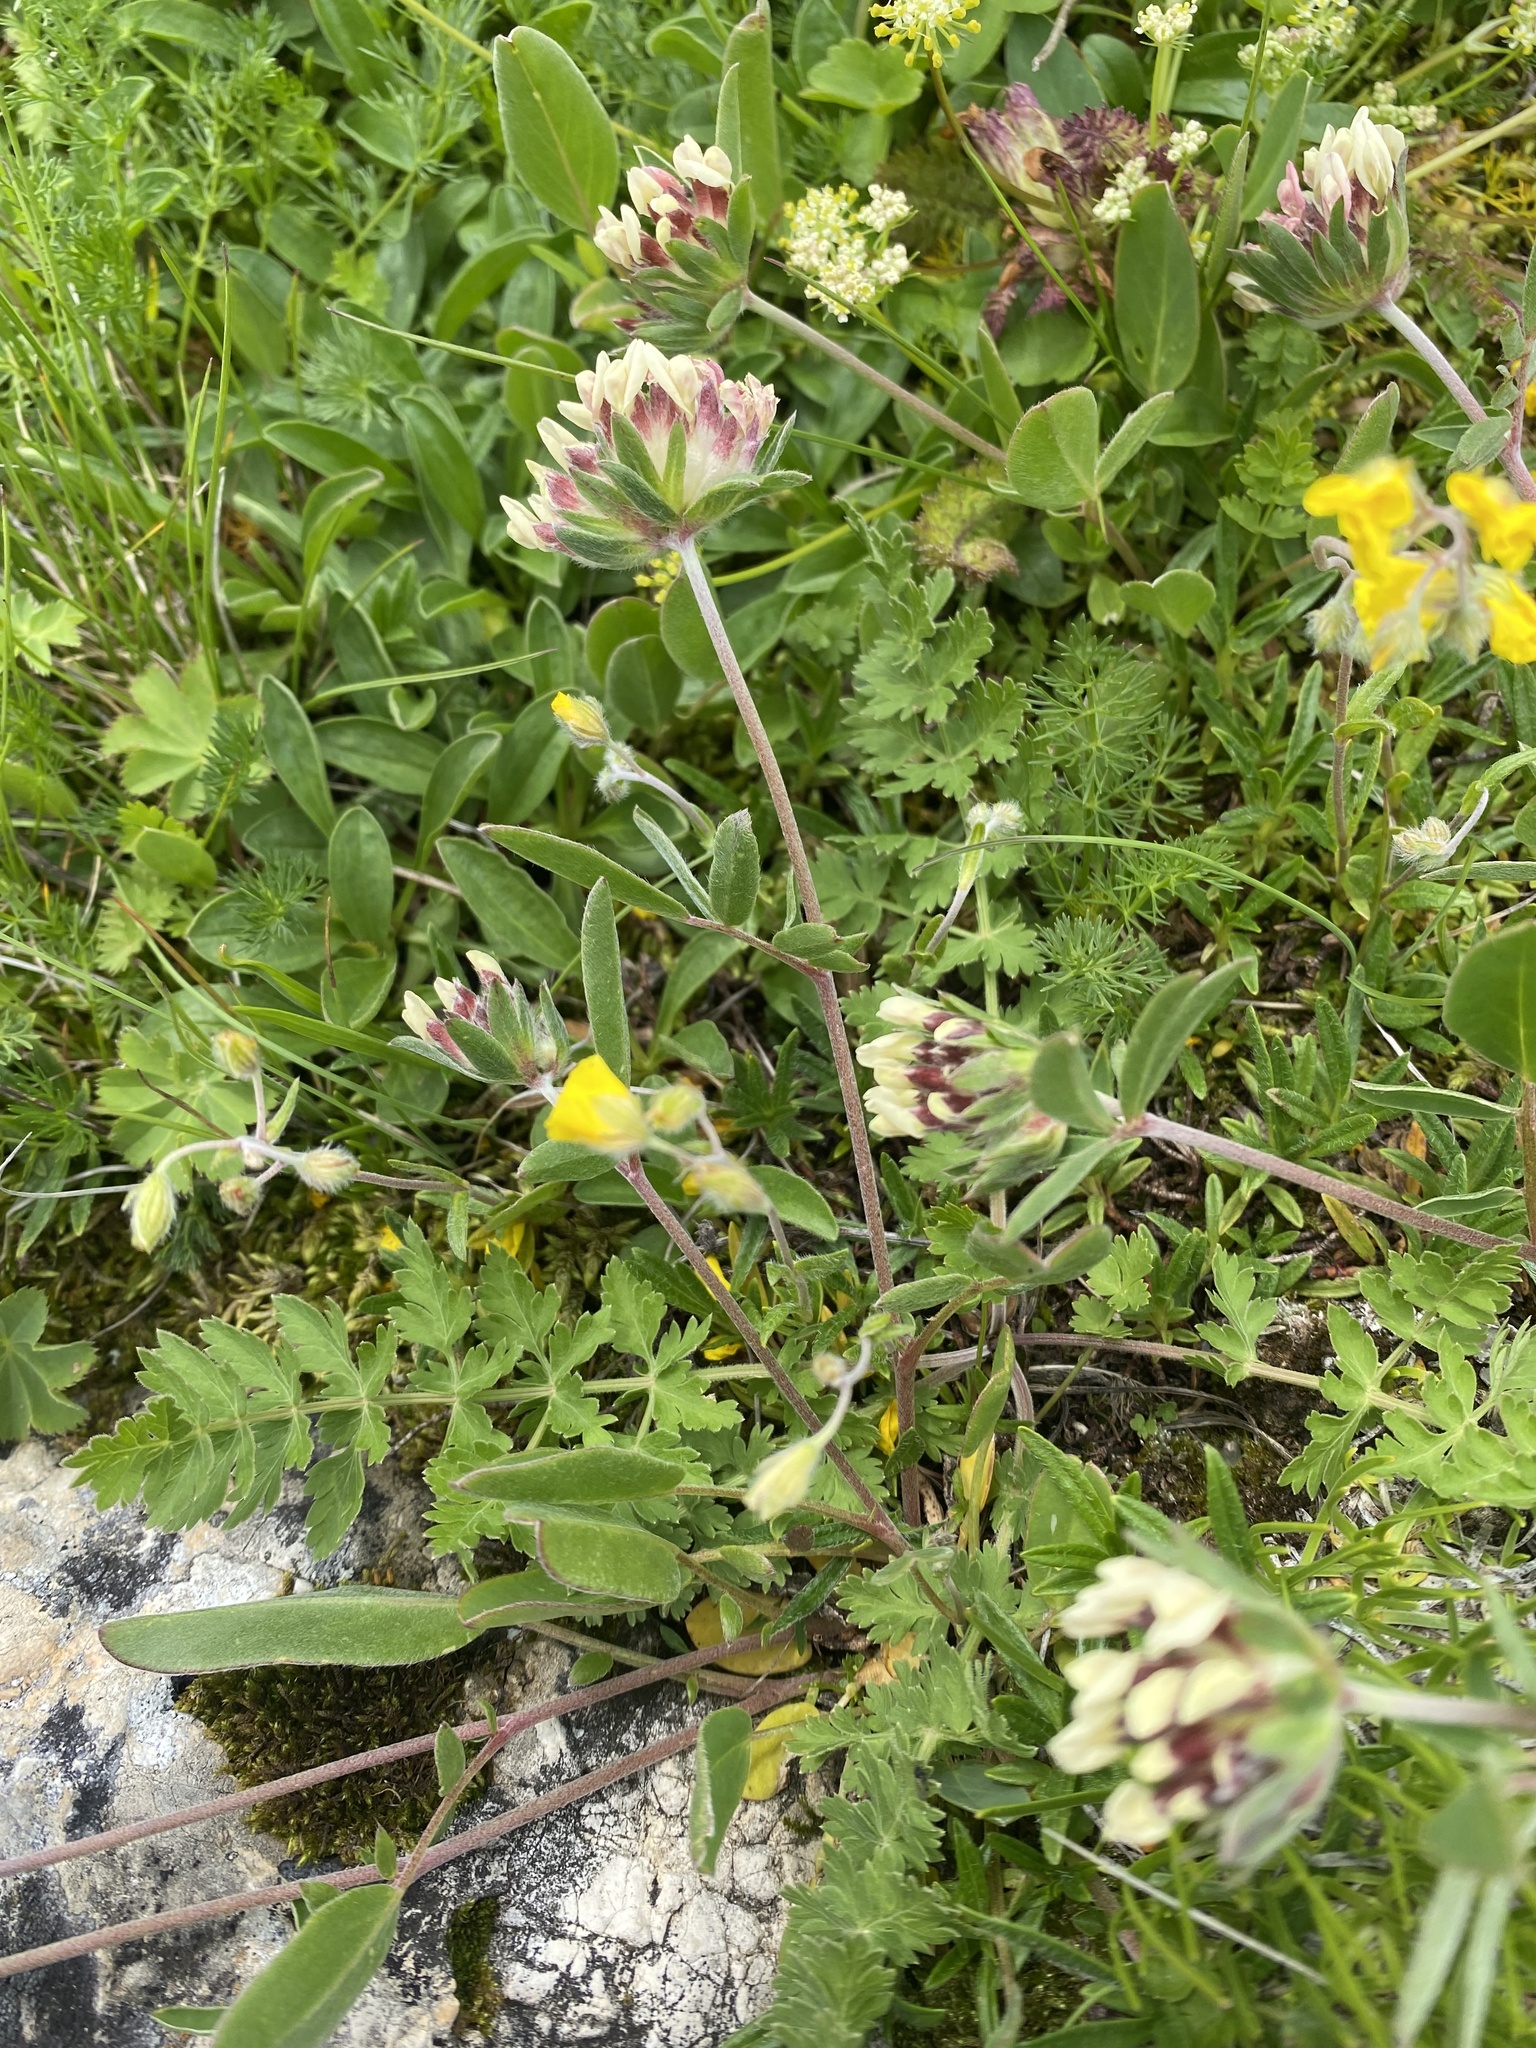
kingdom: Plantae
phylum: Tracheophyta
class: Magnoliopsida
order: Fabales
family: Fabaceae
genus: Anthyllis
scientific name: Anthyllis vulneraria
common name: Kidney vetch
